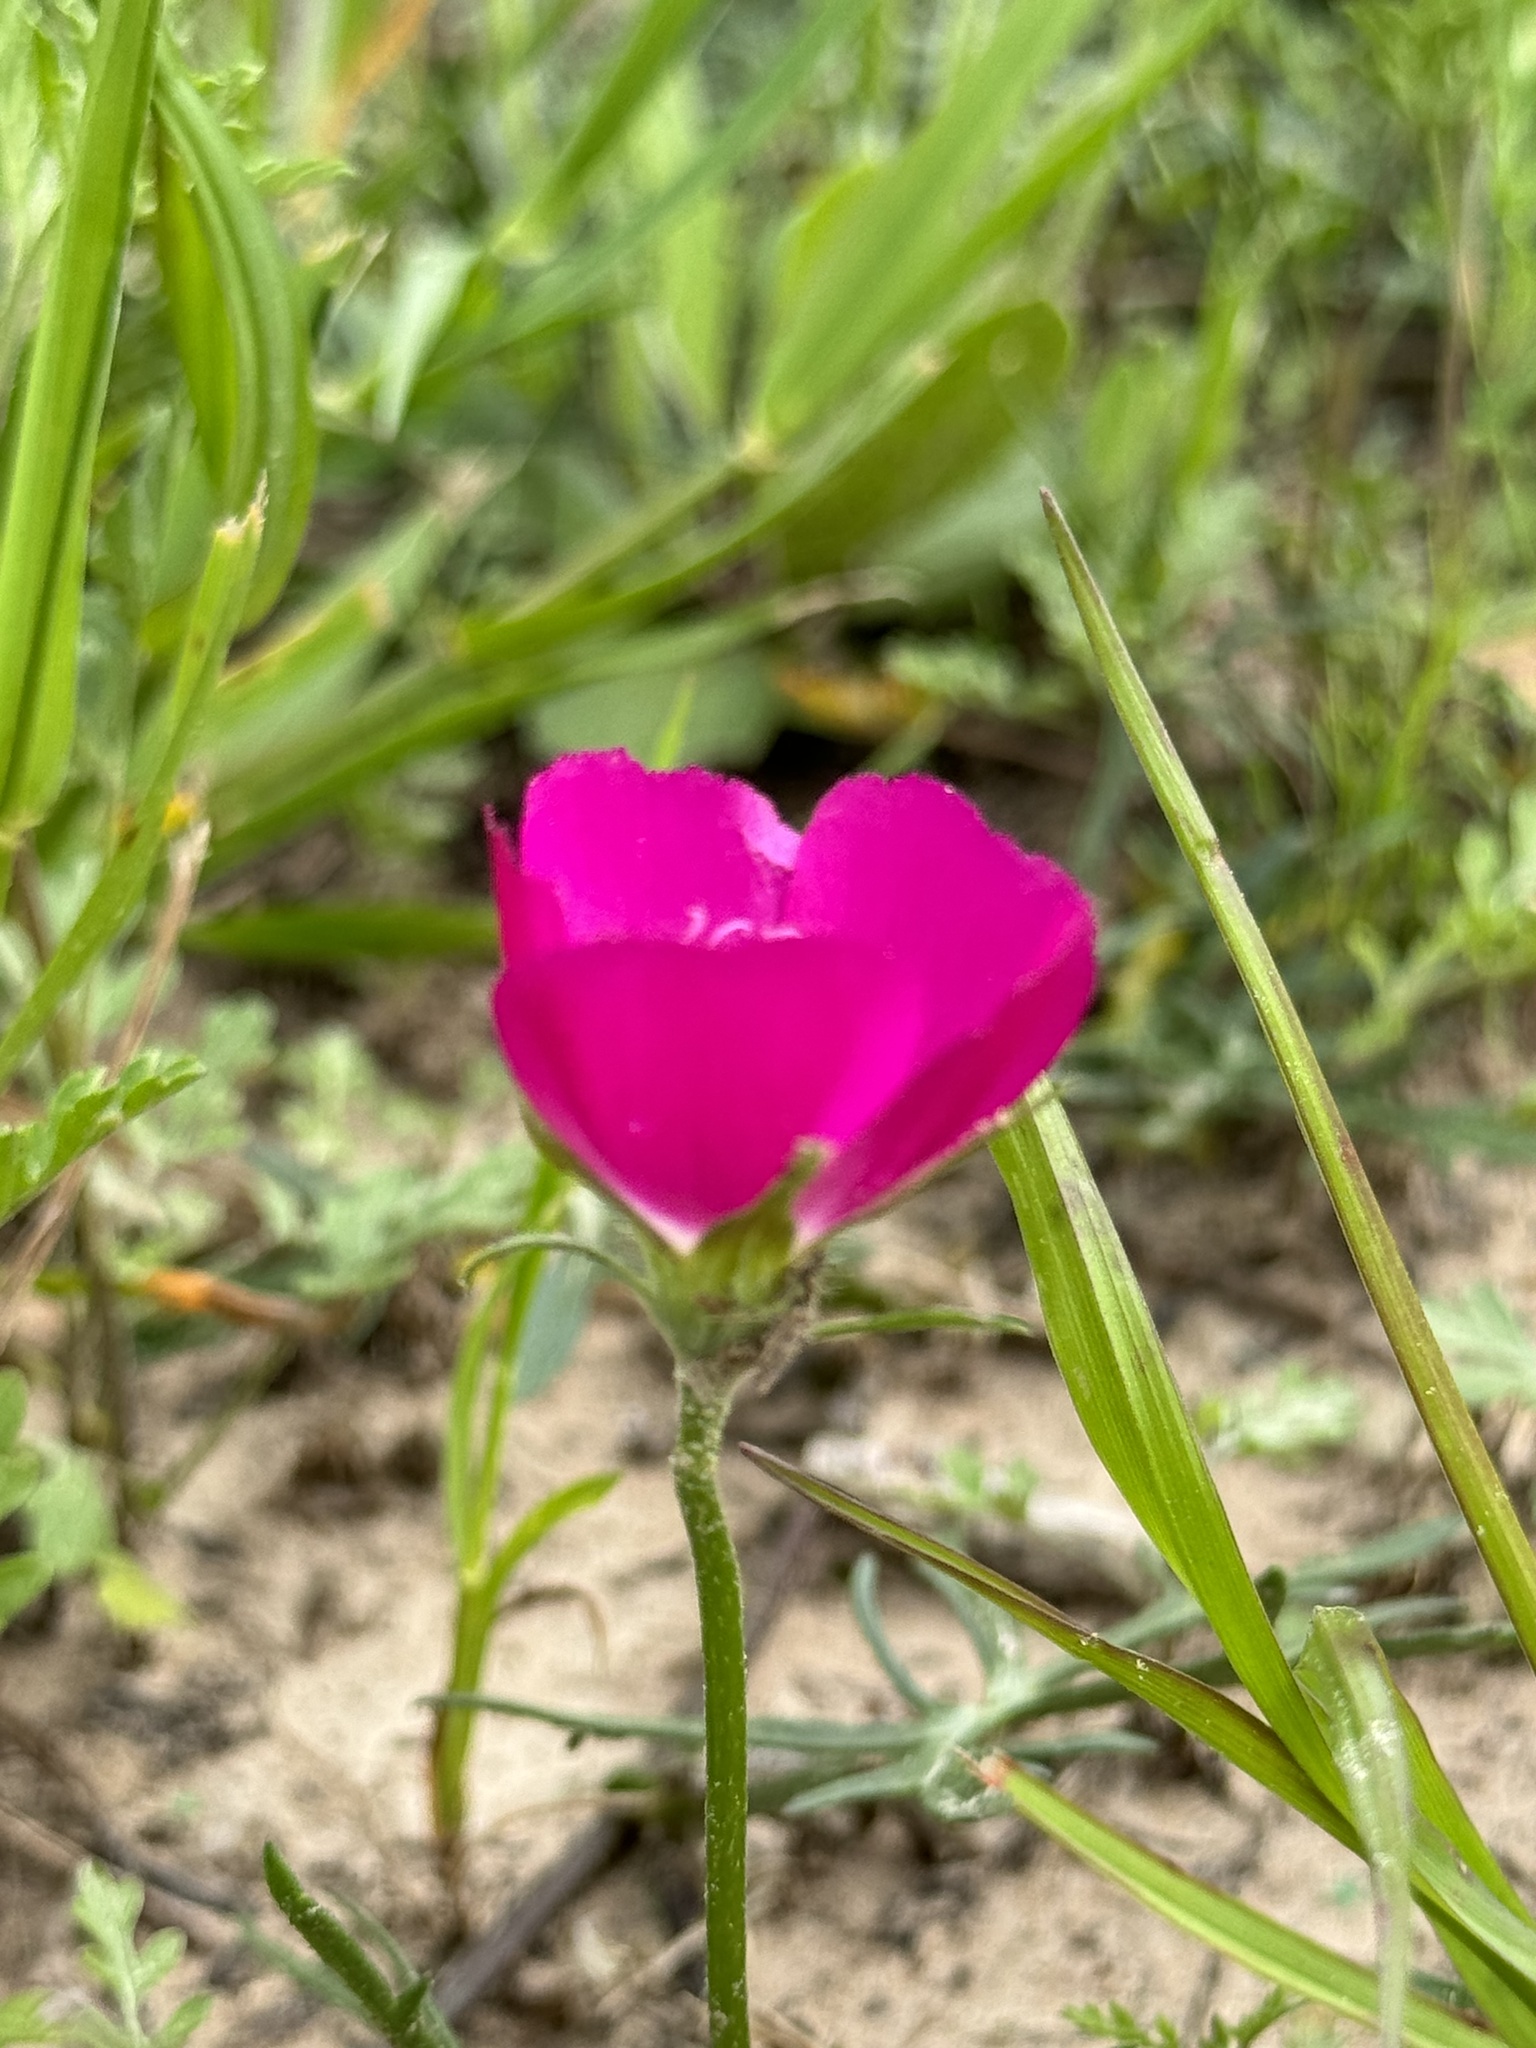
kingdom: Plantae
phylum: Tracheophyta
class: Magnoliopsida
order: Malvales
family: Malvaceae
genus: Callirhoe
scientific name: Callirhoe involucrata
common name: Purple poppy-mallow
